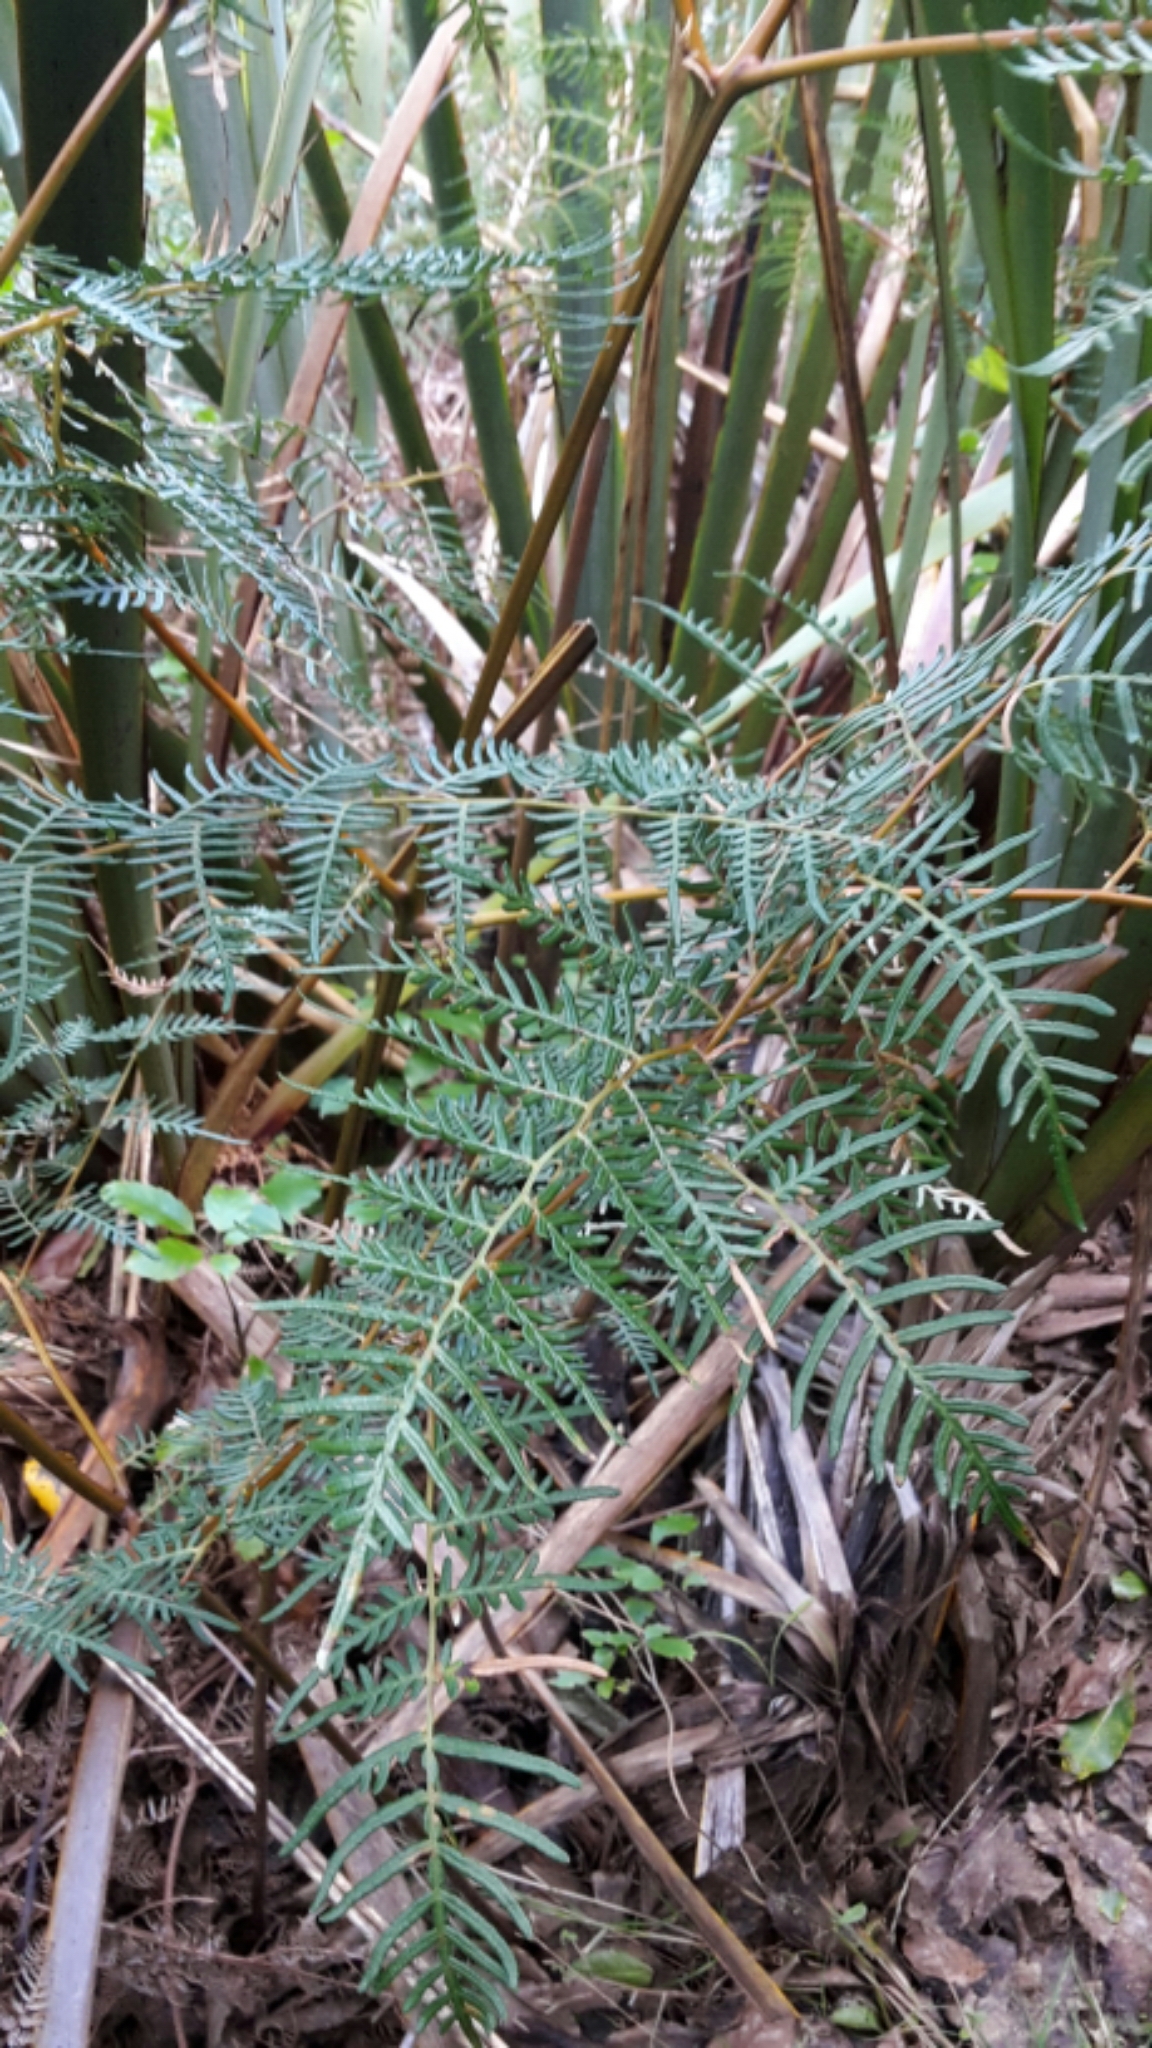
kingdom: Plantae
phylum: Tracheophyta
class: Polypodiopsida
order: Polypodiales
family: Dennstaedtiaceae
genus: Pteridium
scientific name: Pteridium esculentum
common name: Bracken fern
